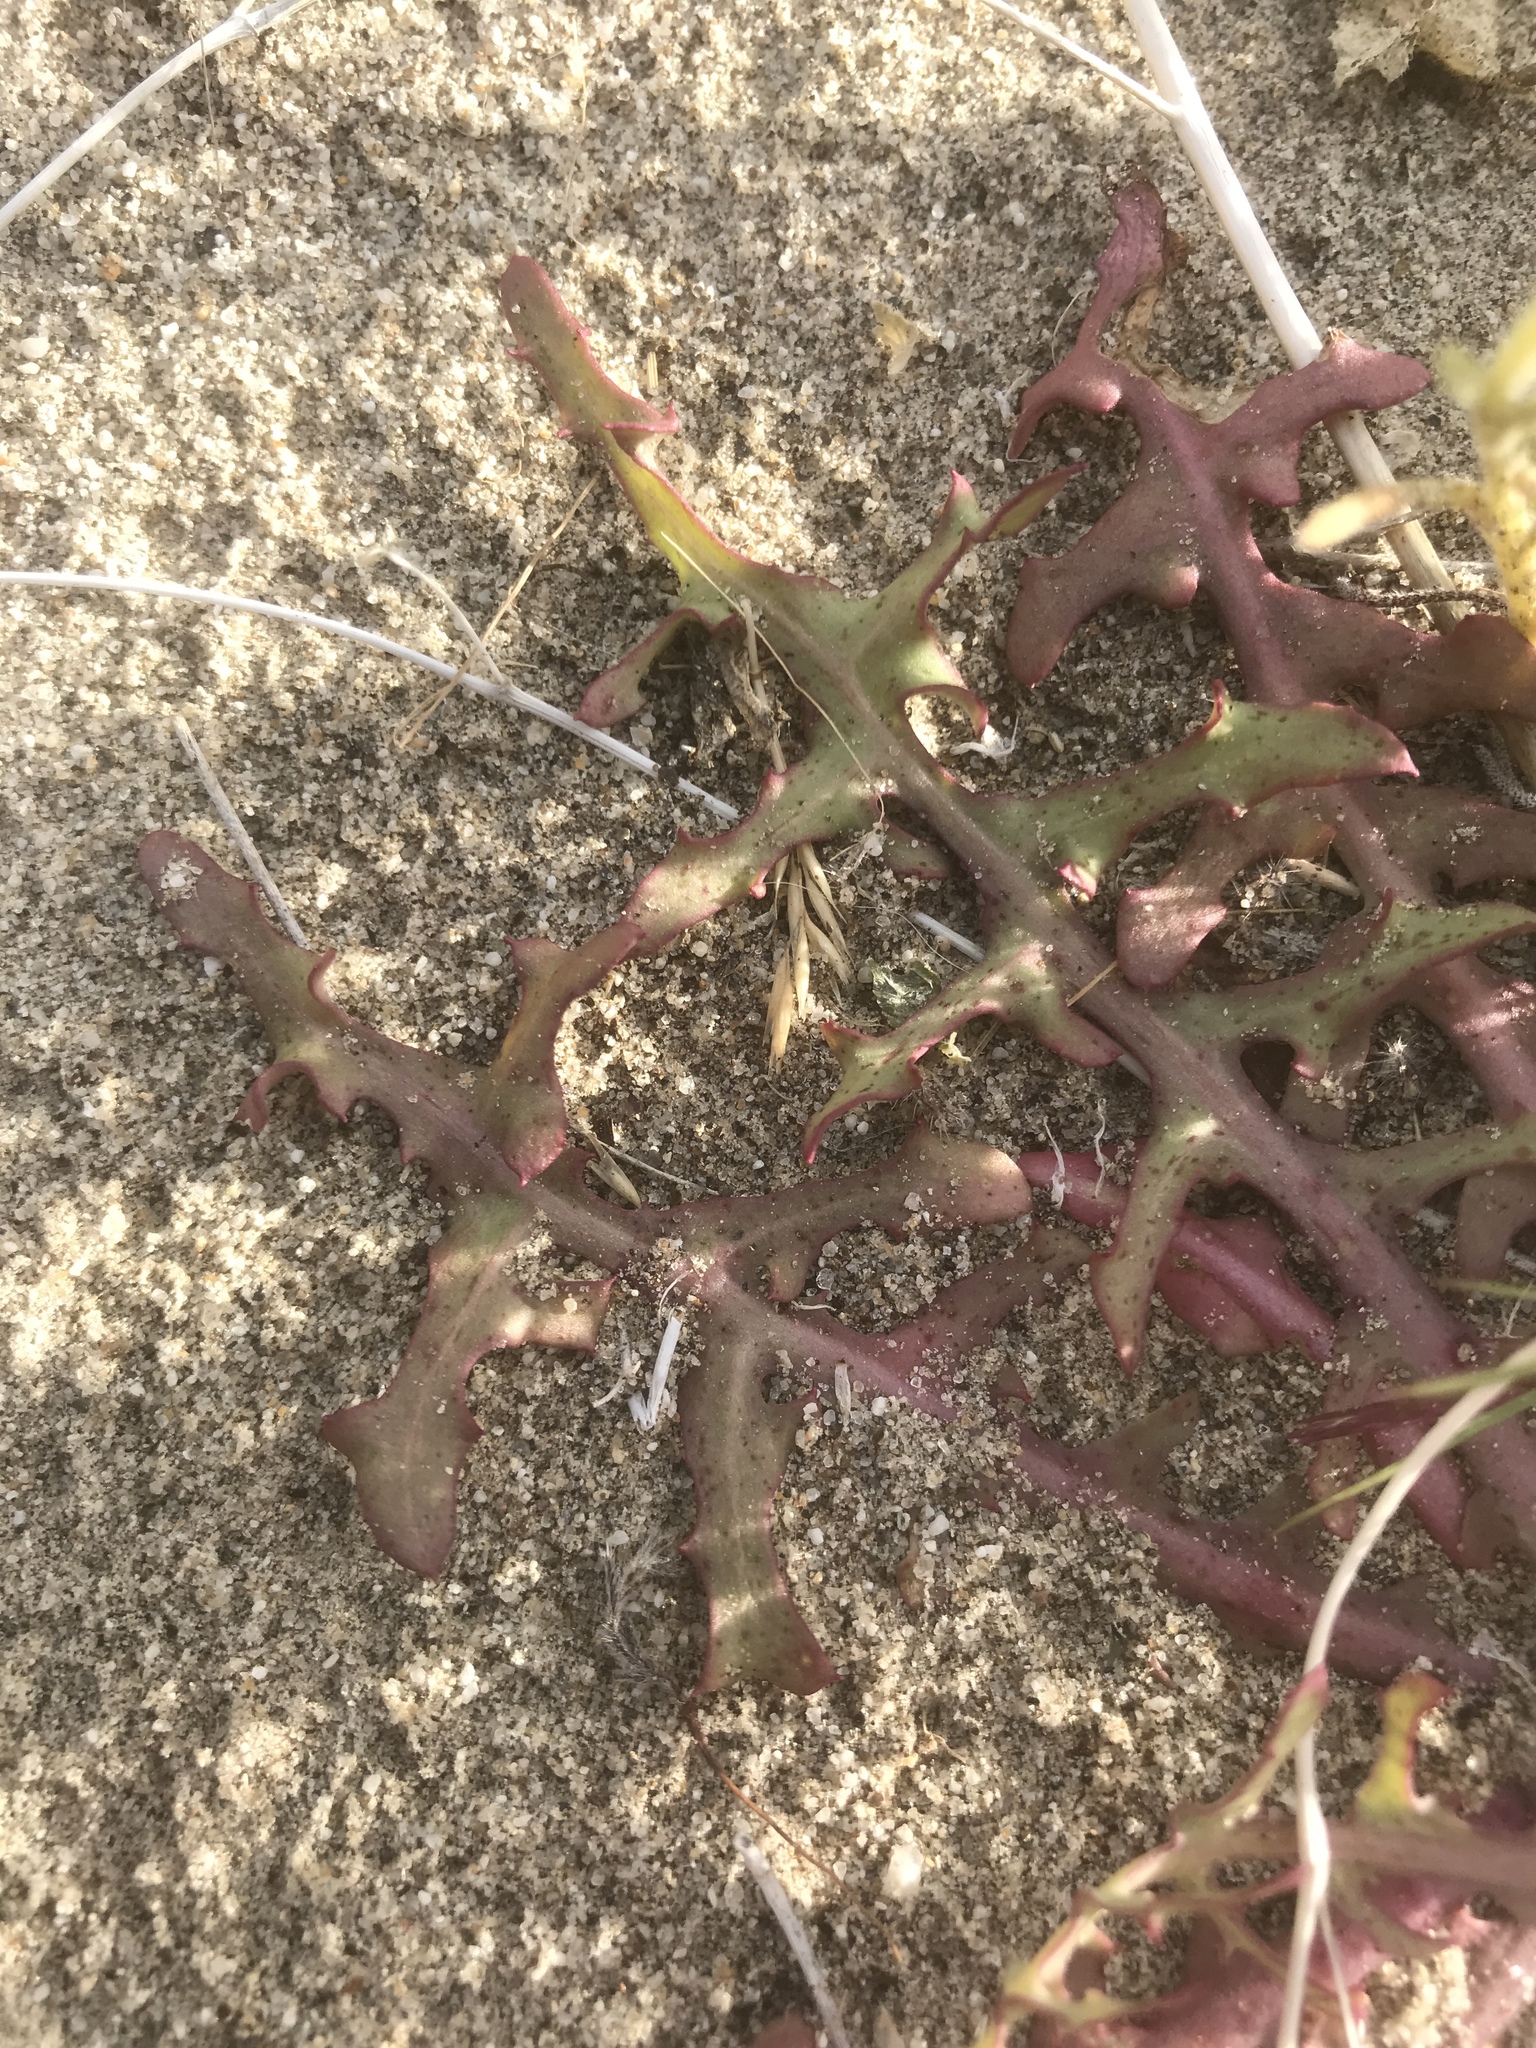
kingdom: Plantae
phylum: Tracheophyta
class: Magnoliopsida
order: Asterales
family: Asteraceae
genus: Rafinesquia
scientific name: Rafinesquia neomexicana
